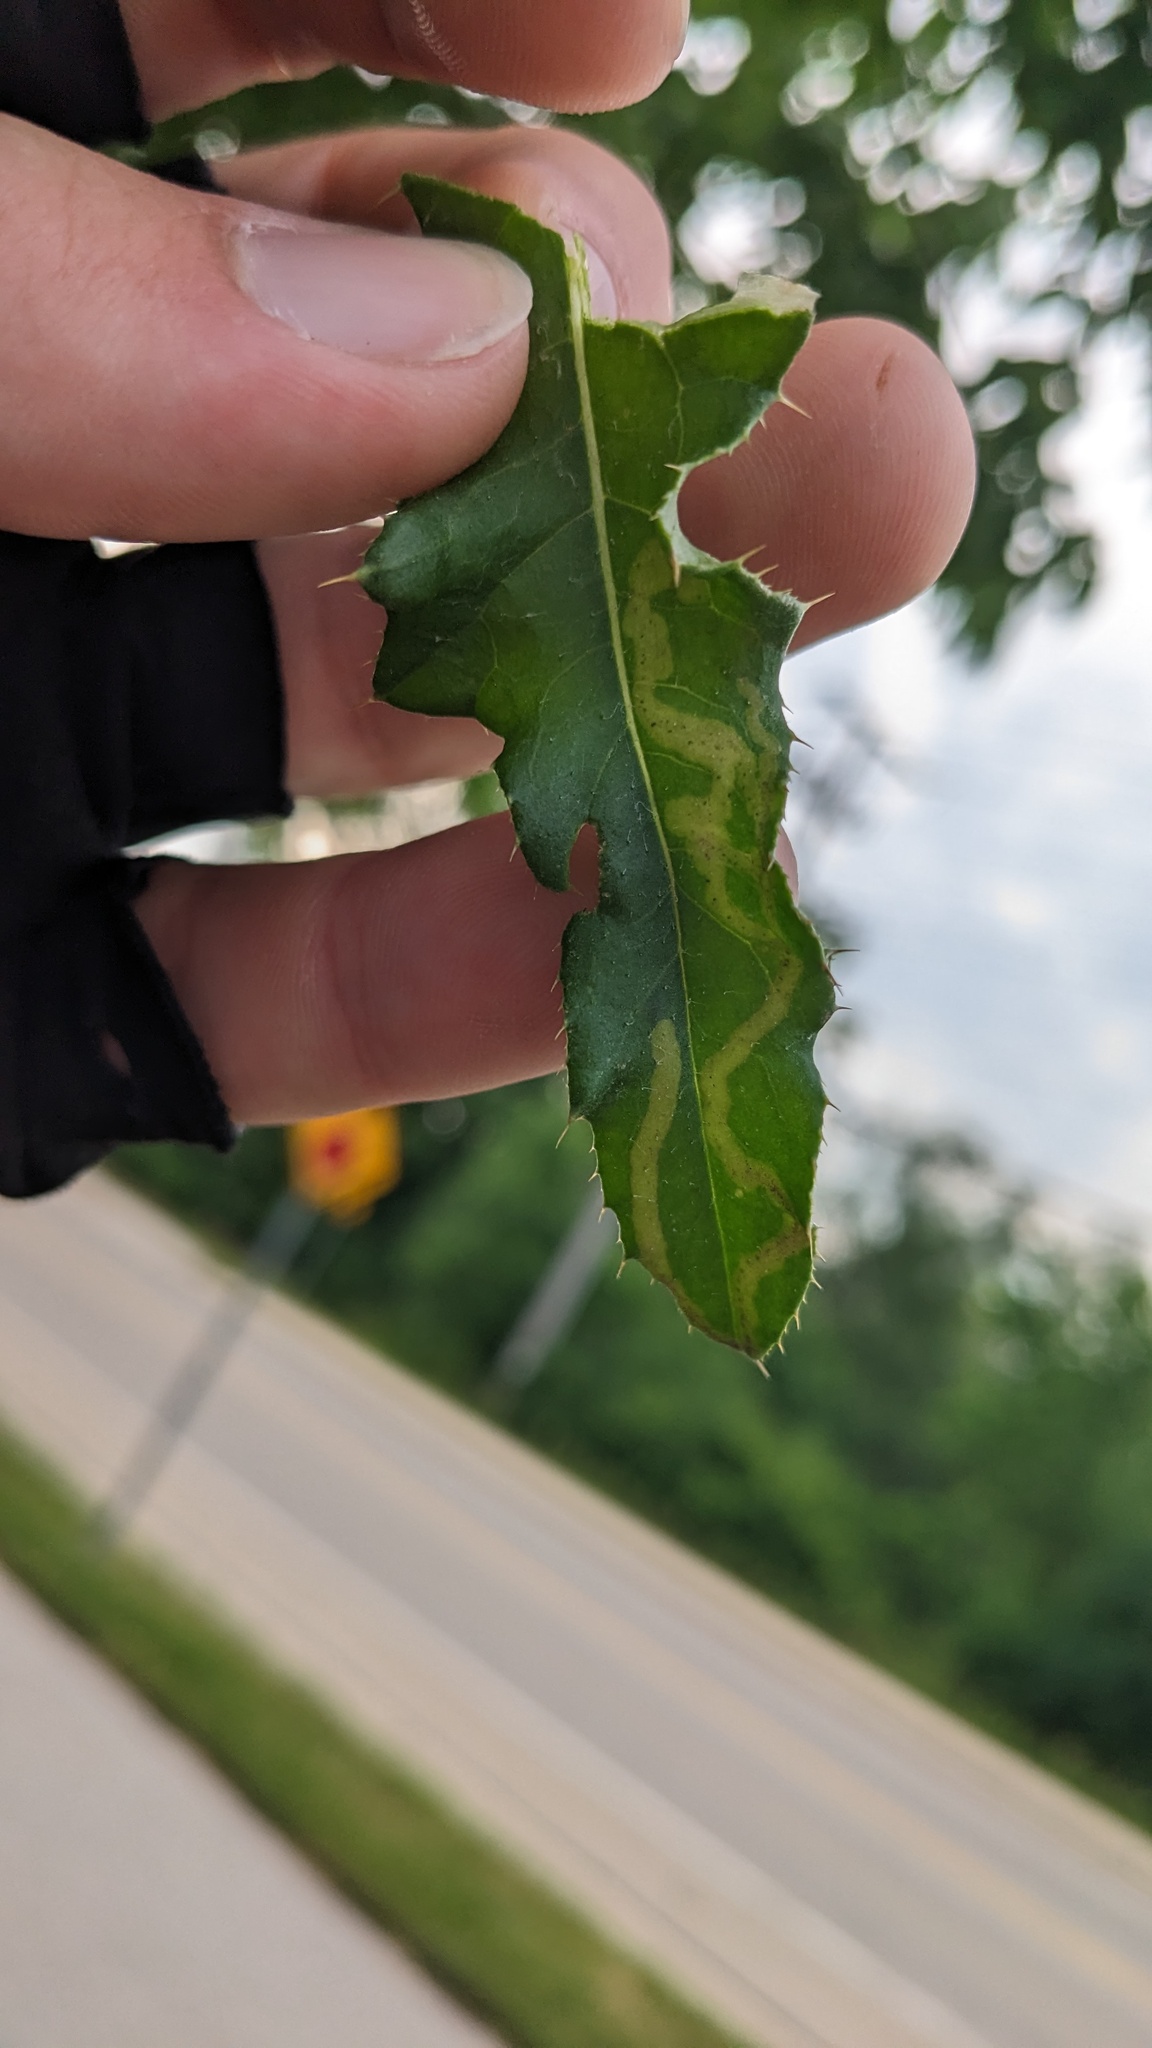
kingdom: Animalia
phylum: Arthropoda
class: Insecta
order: Diptera
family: Agromyzidae
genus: Phytomyza
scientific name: Phytomyza spinaciae
